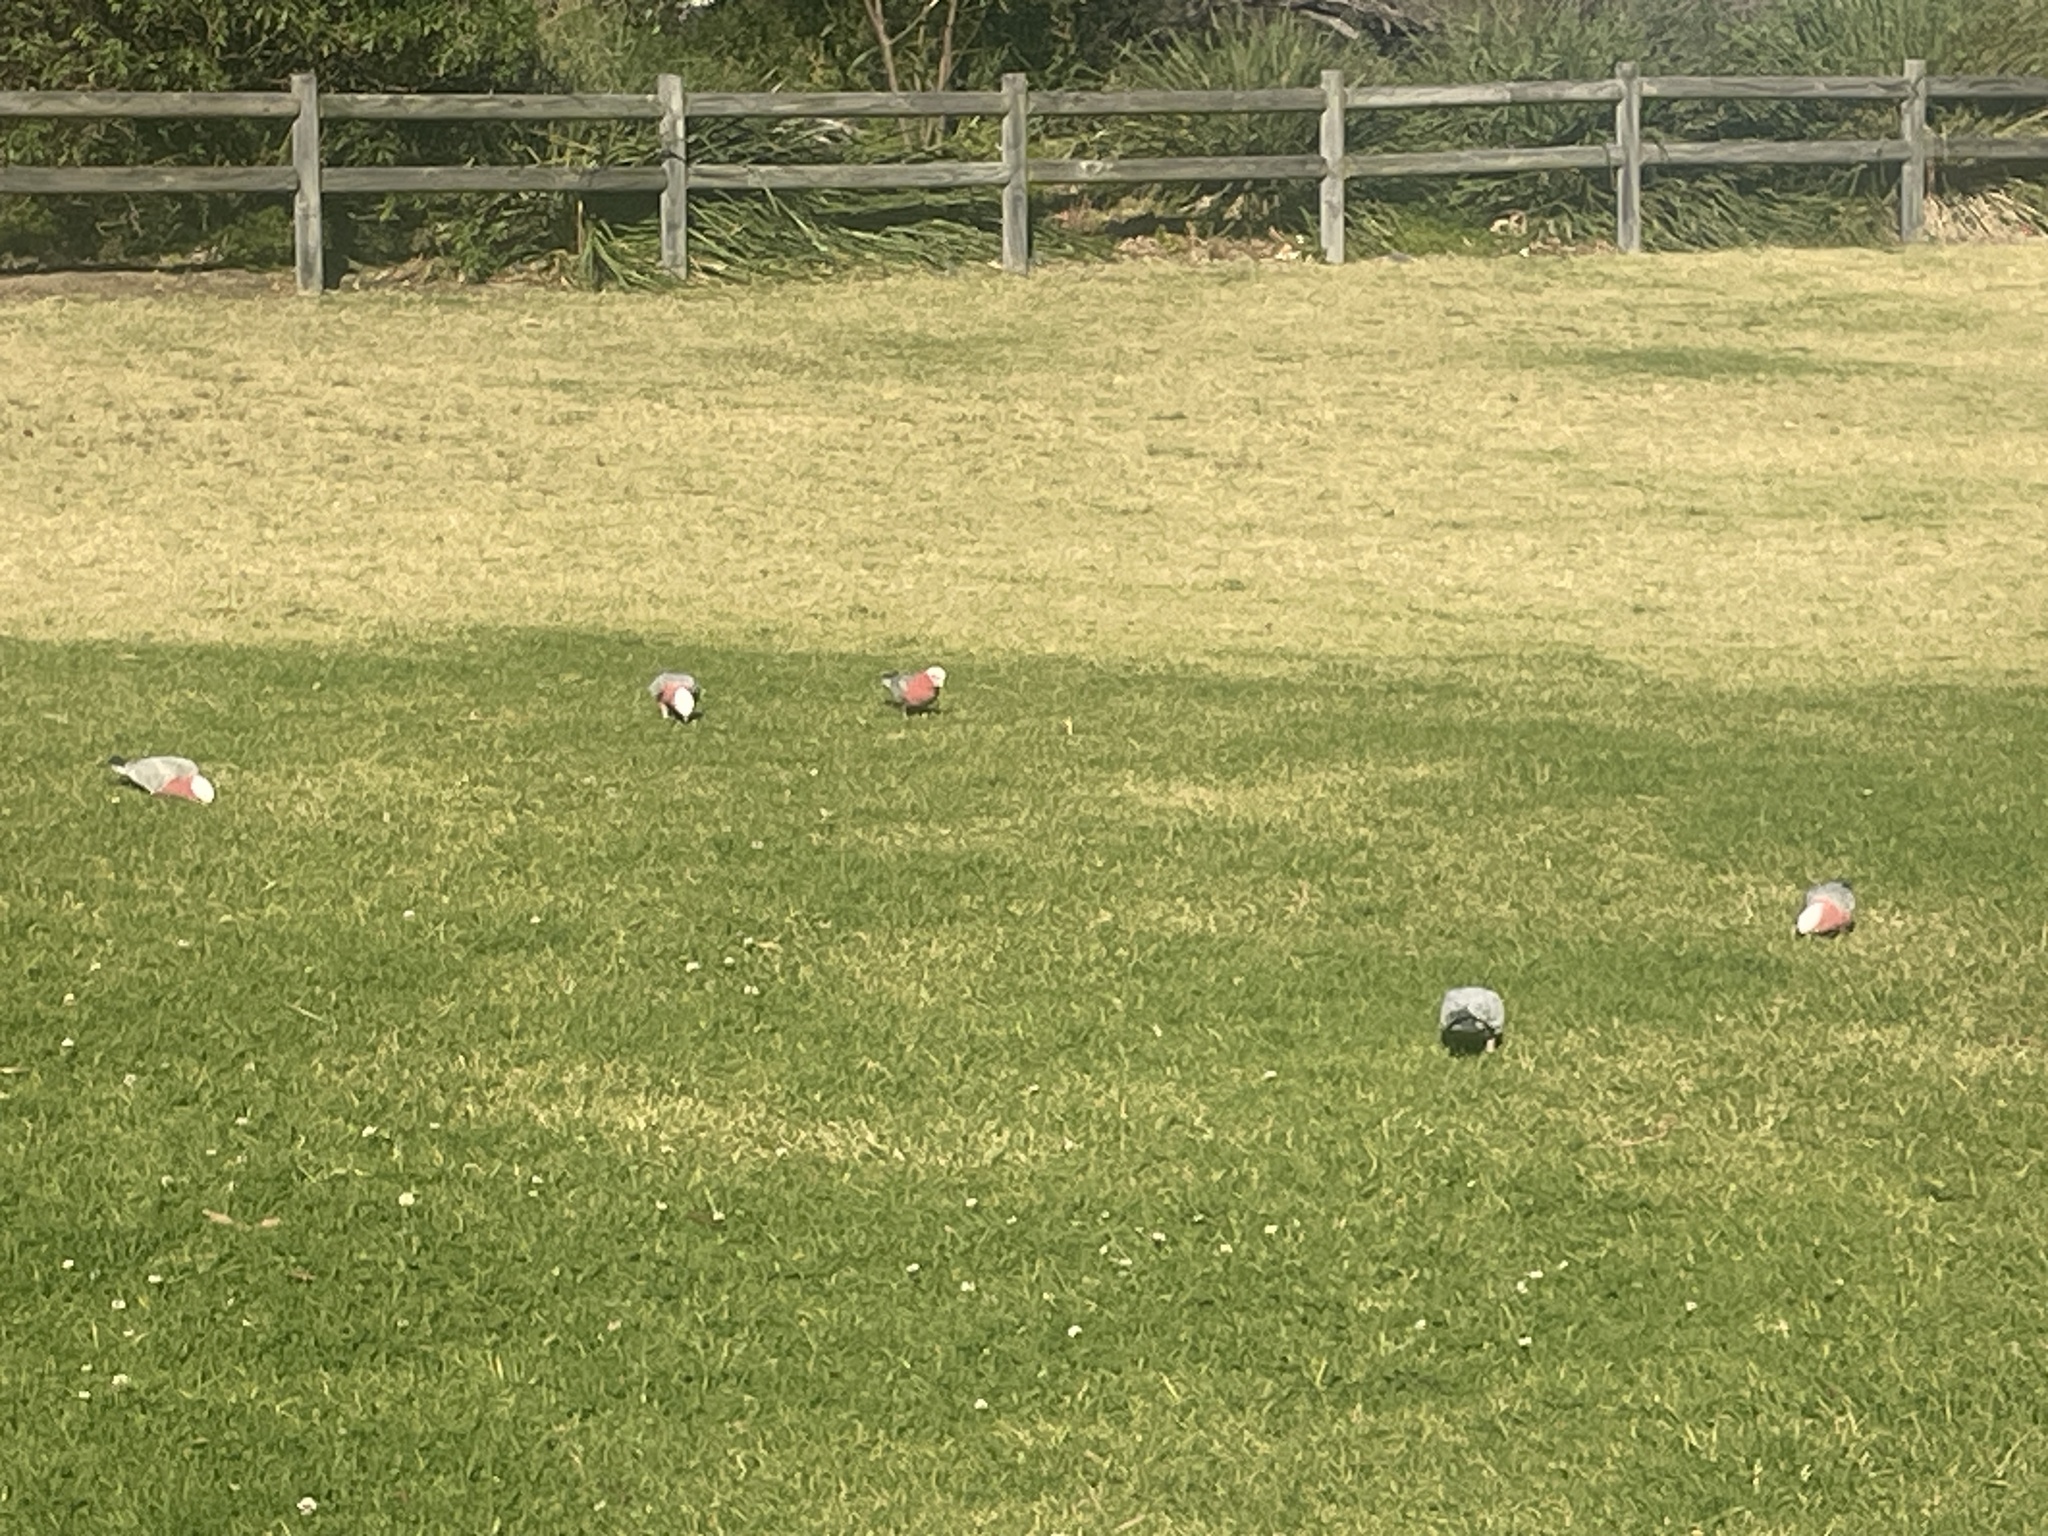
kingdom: Animalia
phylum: Chordata
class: Aves
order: Psittaciformes
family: Psittacidae
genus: Eolophus
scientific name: Eolophus roseicapilla
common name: Galah
